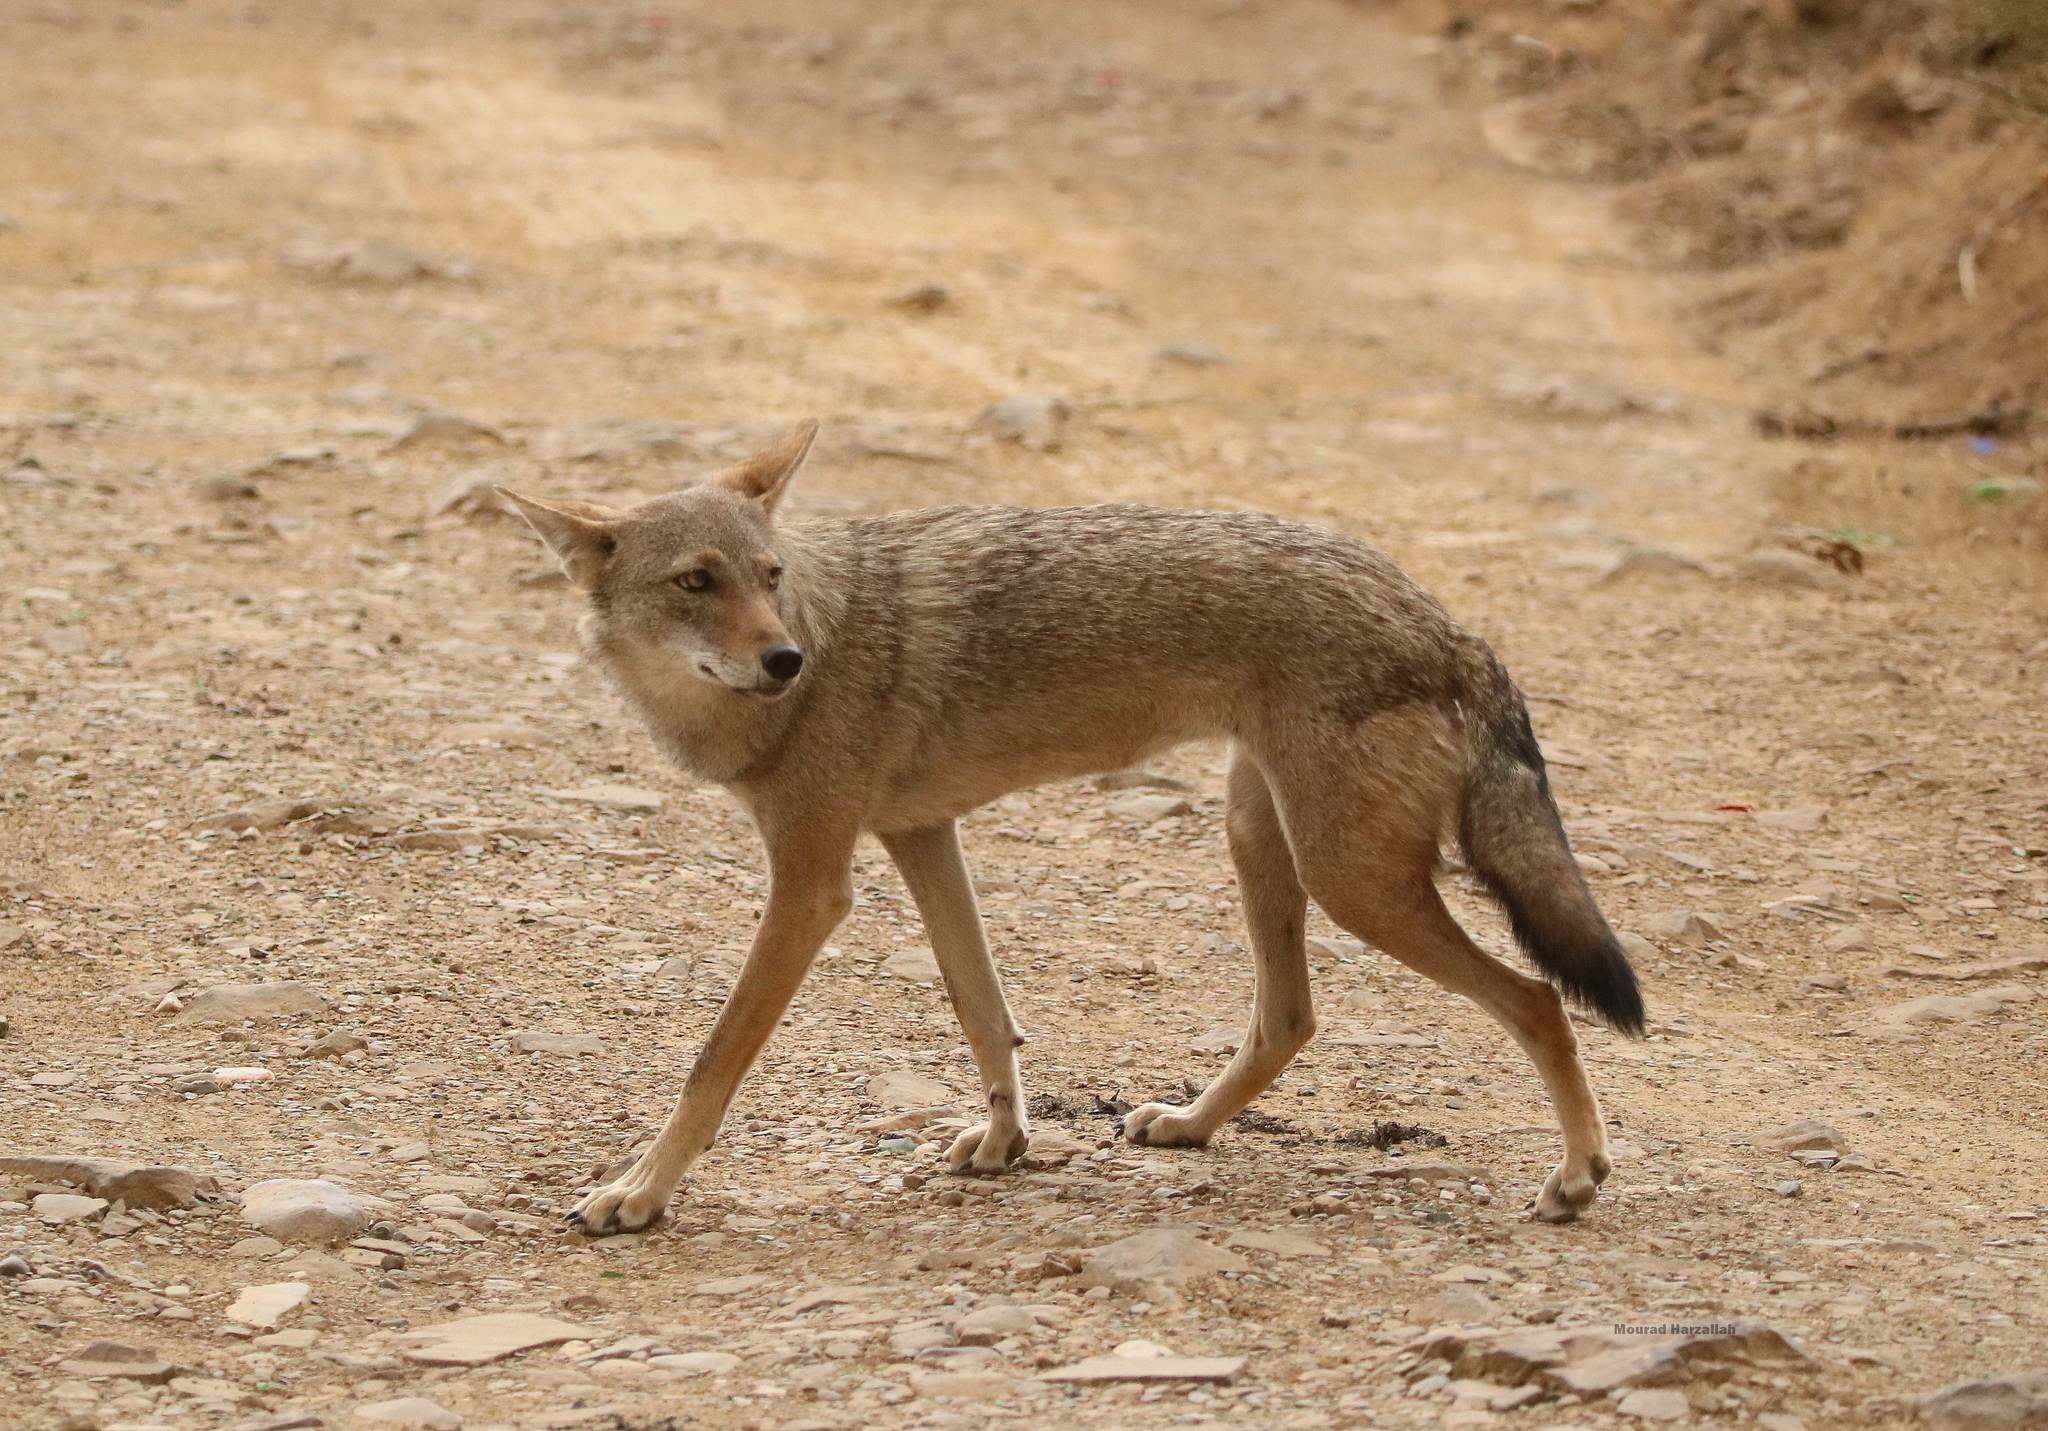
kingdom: Animalia
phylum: Chordata
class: Mammalia
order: Carnivora
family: Canidae
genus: Canis
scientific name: Canis lupaster
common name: African golden wolf
